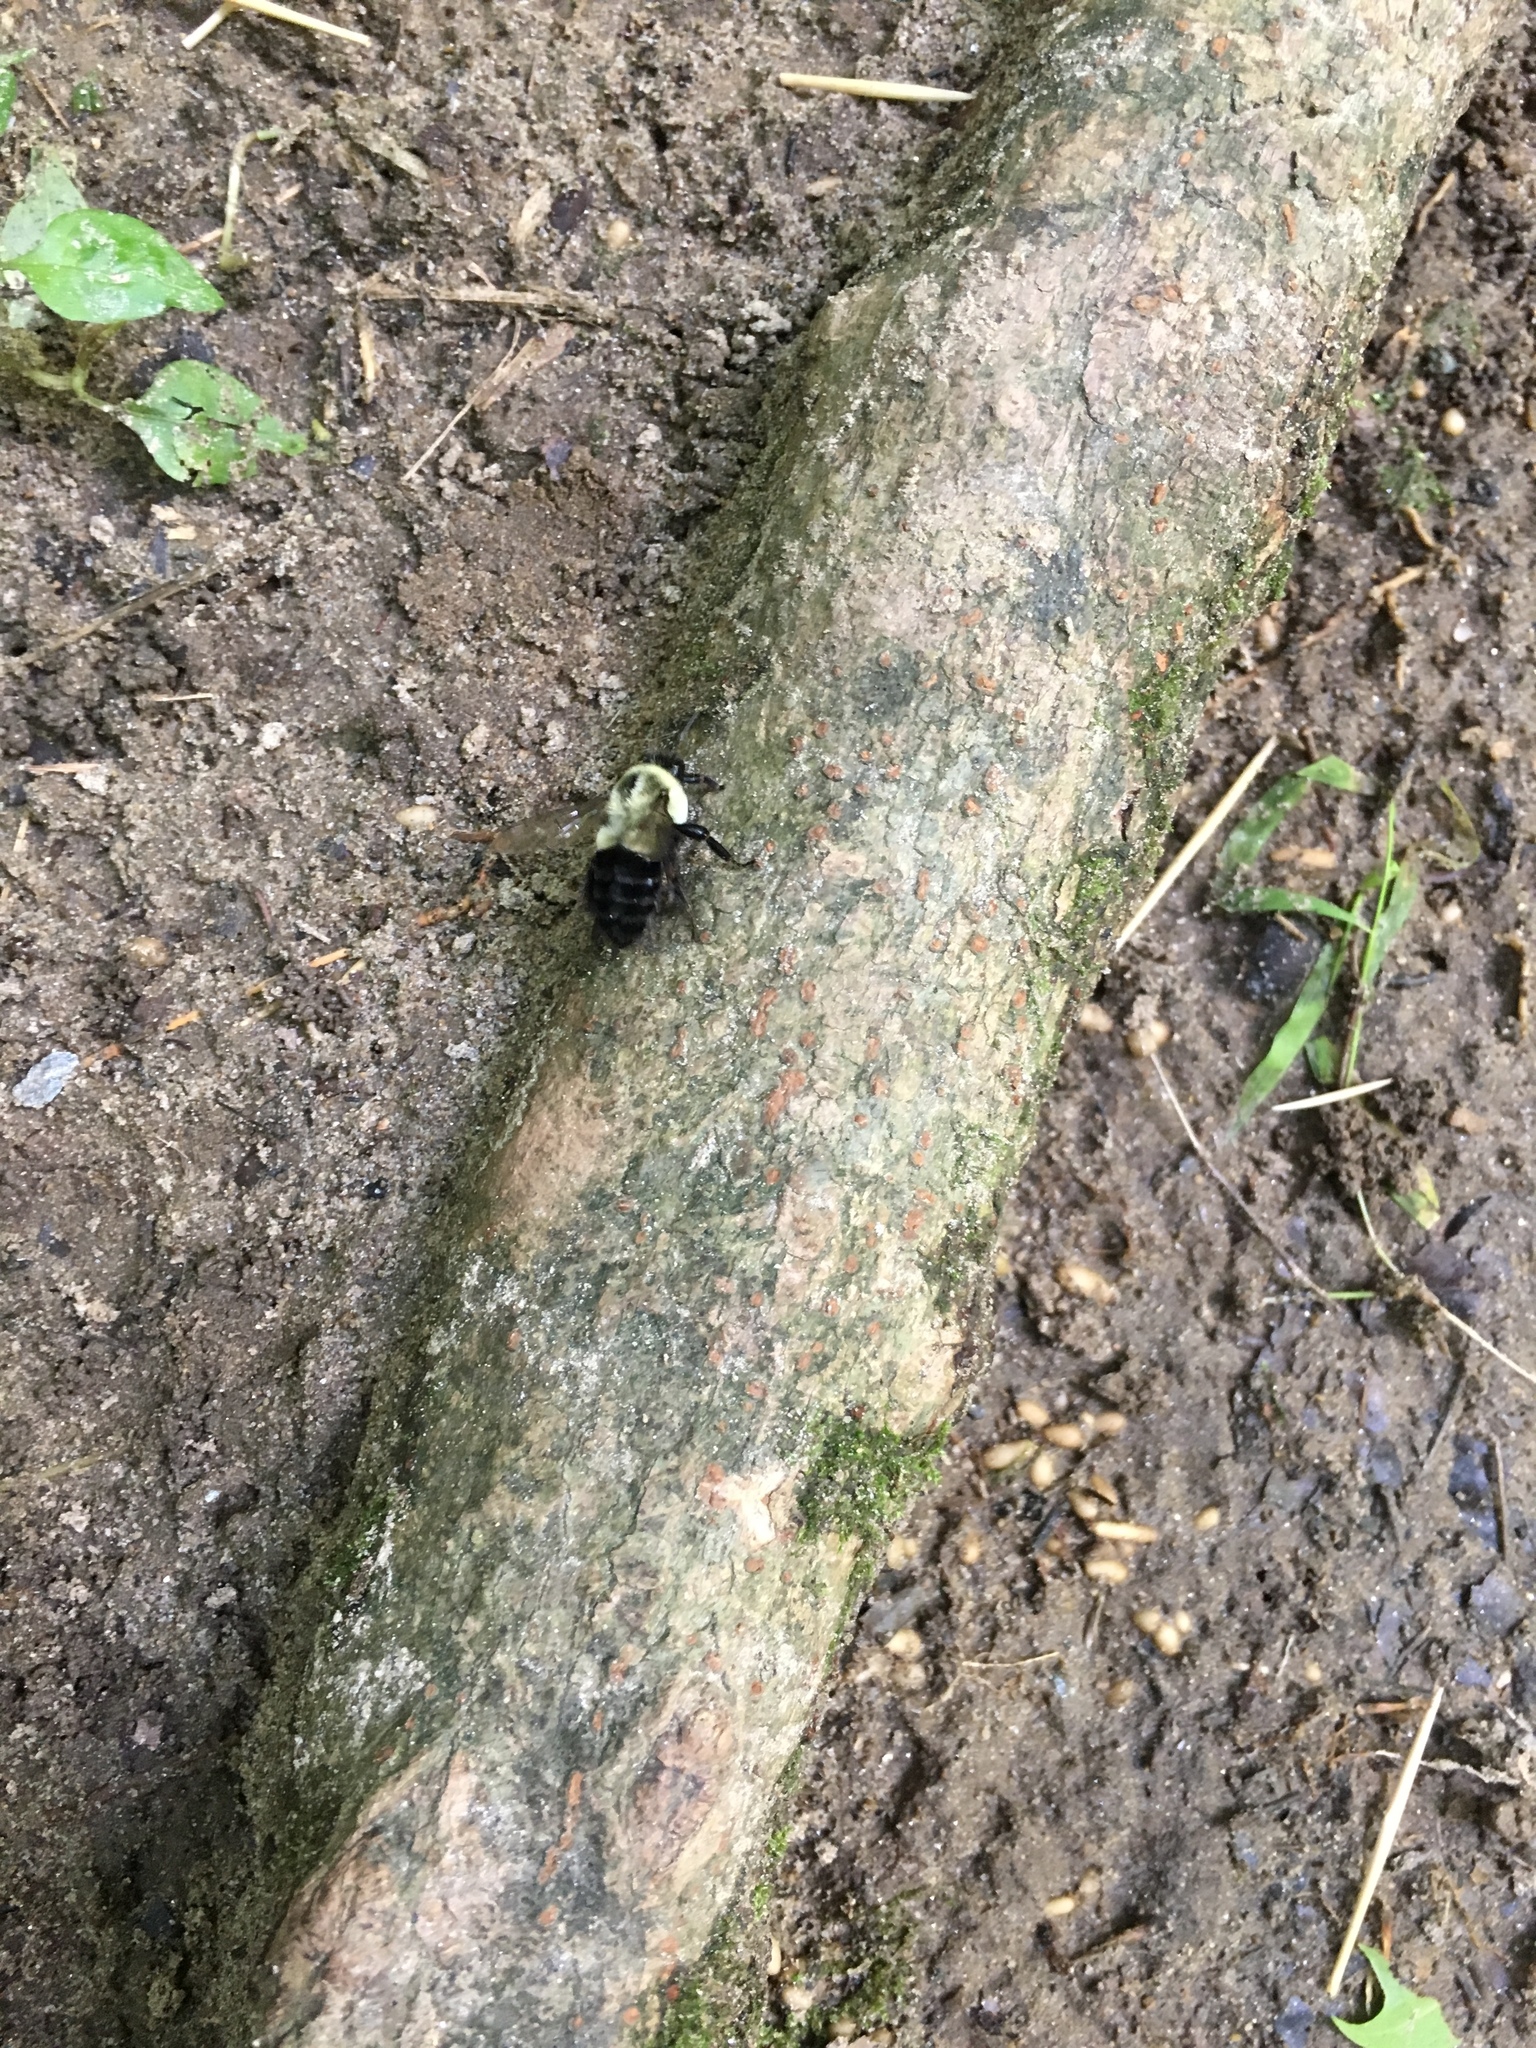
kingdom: Animalia
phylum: Arthropoda
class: Insecta
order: Hymenoptera
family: Apidae
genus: Bombus
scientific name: Bombus impatiens
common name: Common eastern bumble bee
